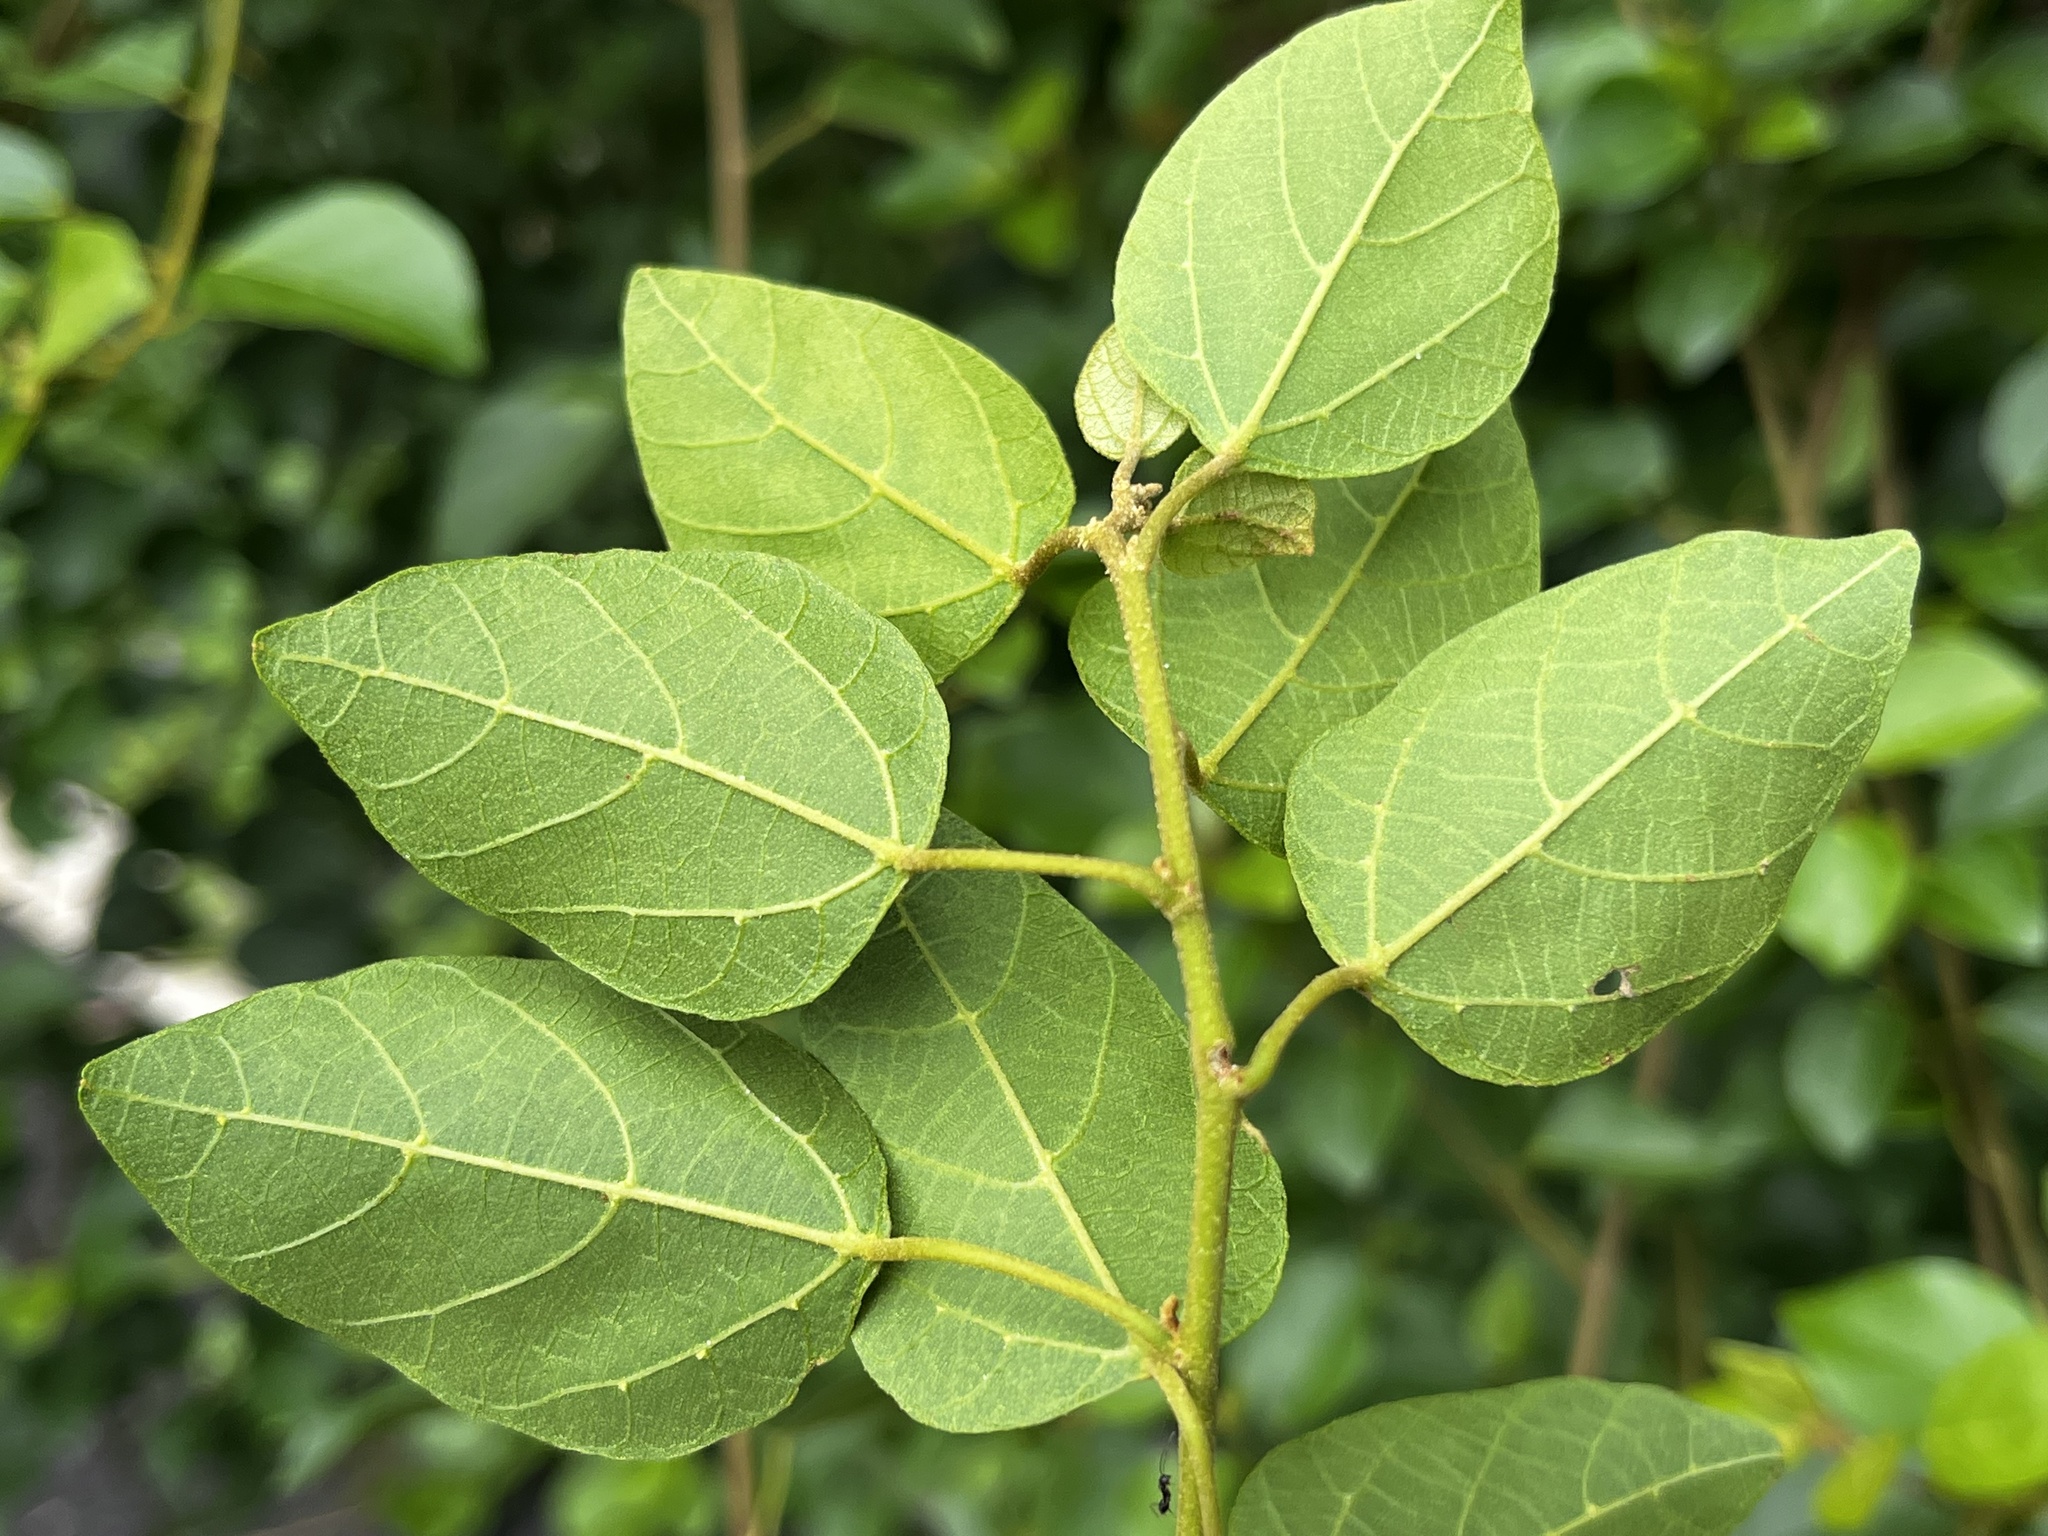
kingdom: Plantae
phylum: Tracheophyta
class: Magnoliopsida
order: Malpighiales
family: Euphorbiaceae
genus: Mallotus
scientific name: Mallotus repandus
